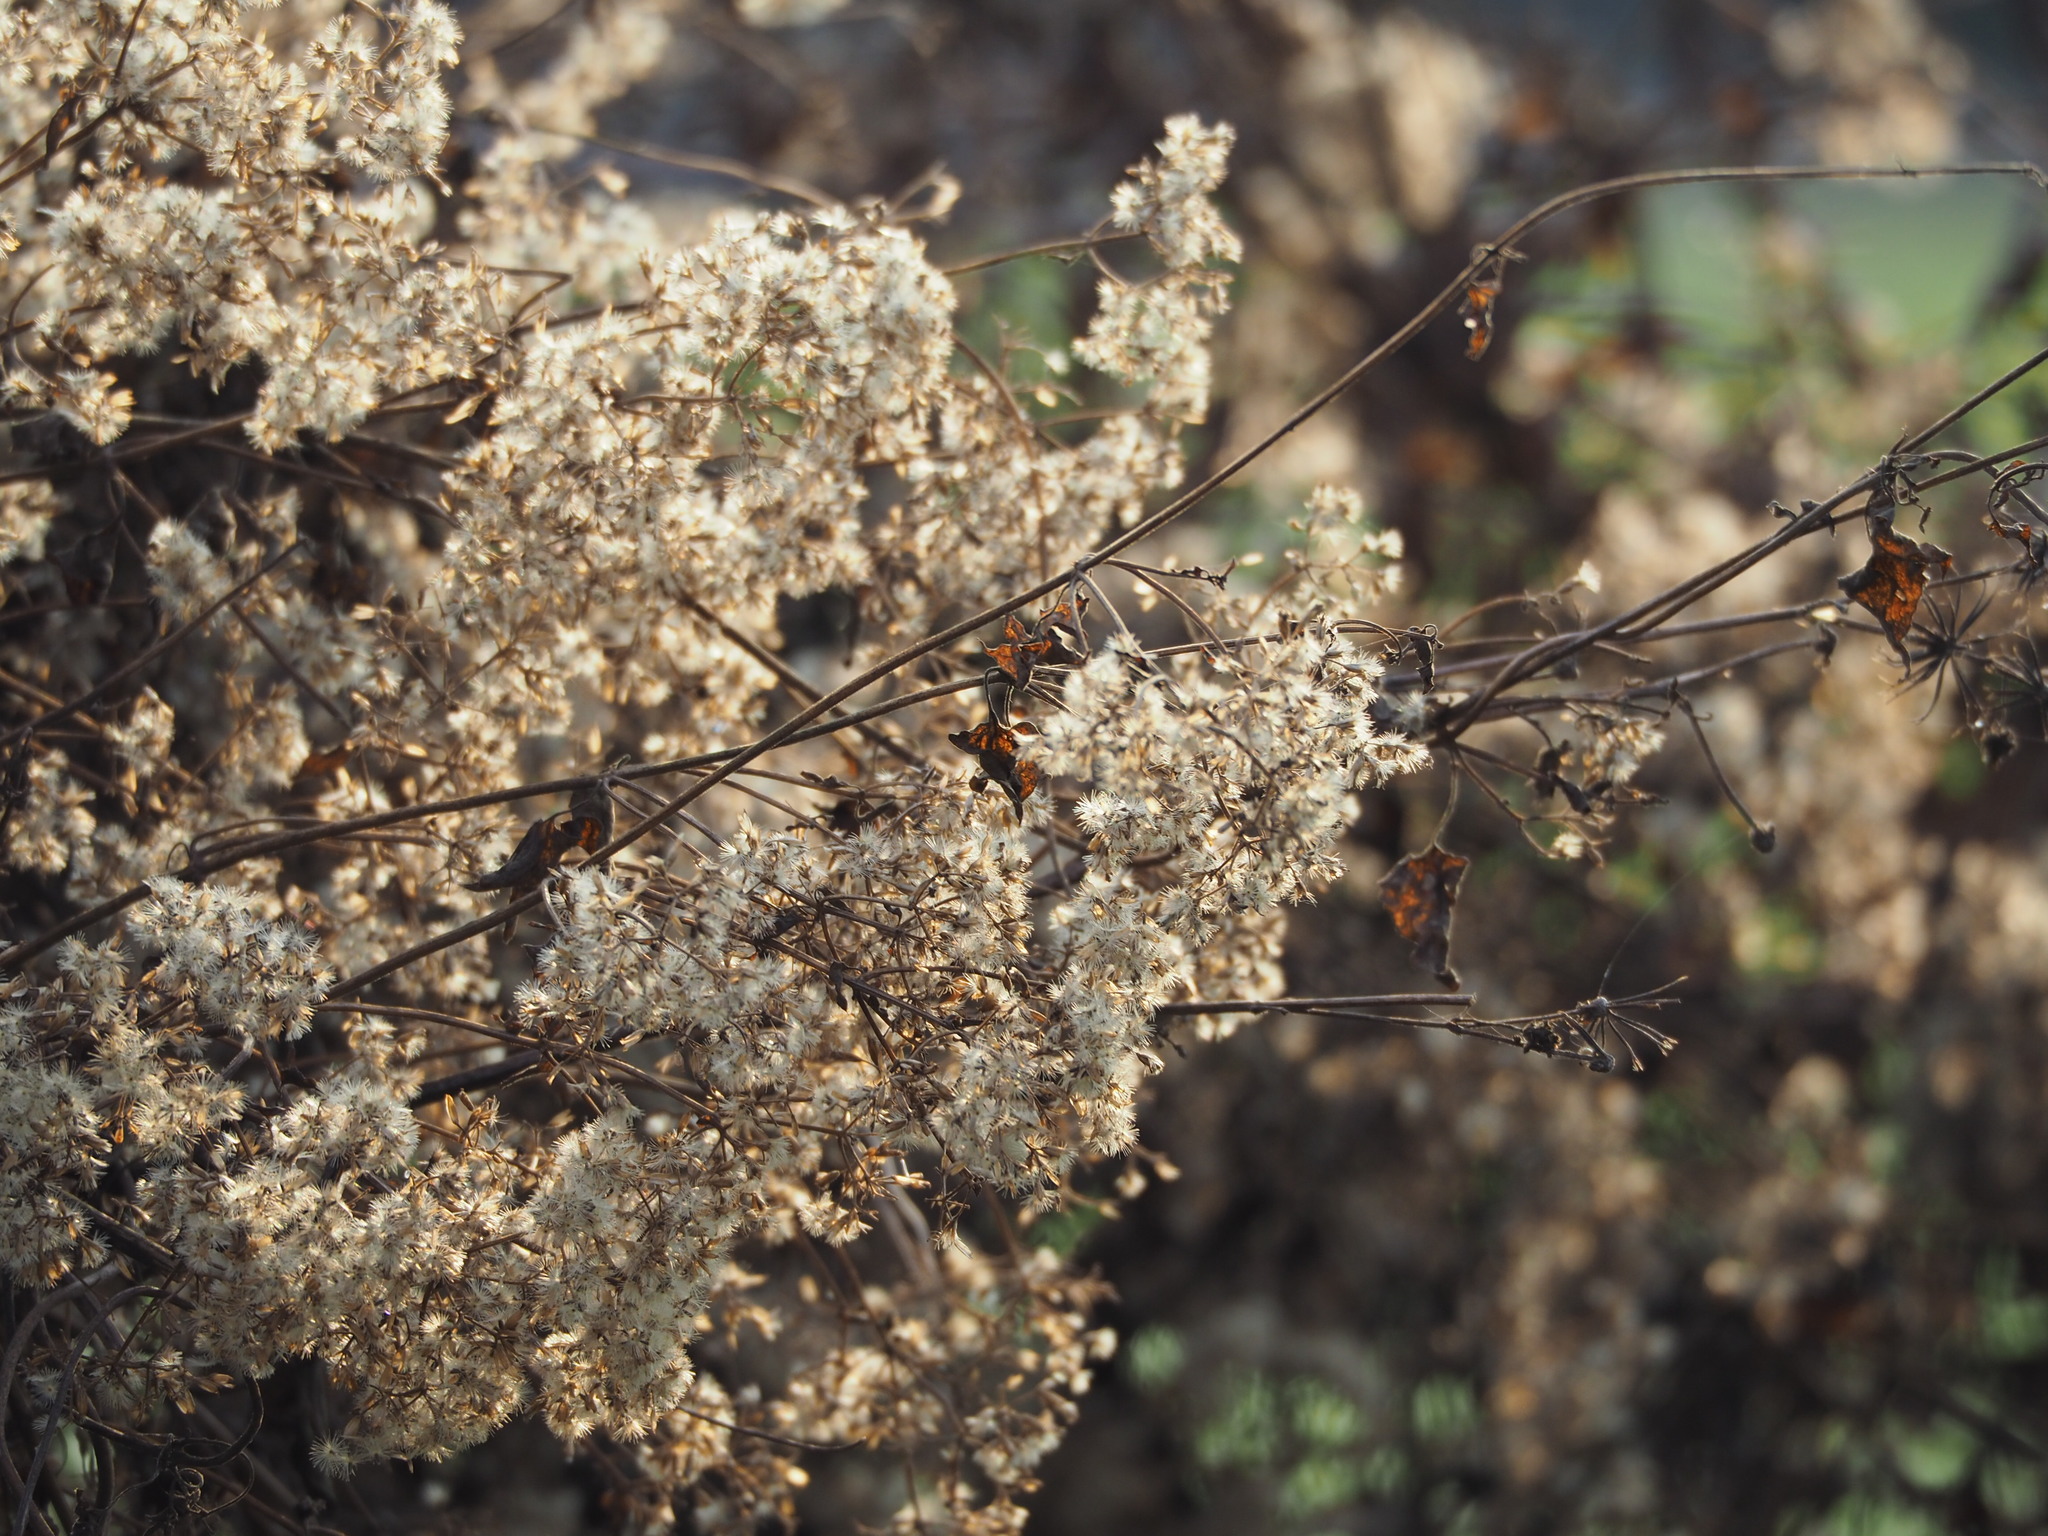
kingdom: Plantae
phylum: Tracheophyta
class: Magnoliopsida
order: Asterales
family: Asteraceae
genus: Mikania
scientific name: Mikania micrantha
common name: Mile-a-minute
